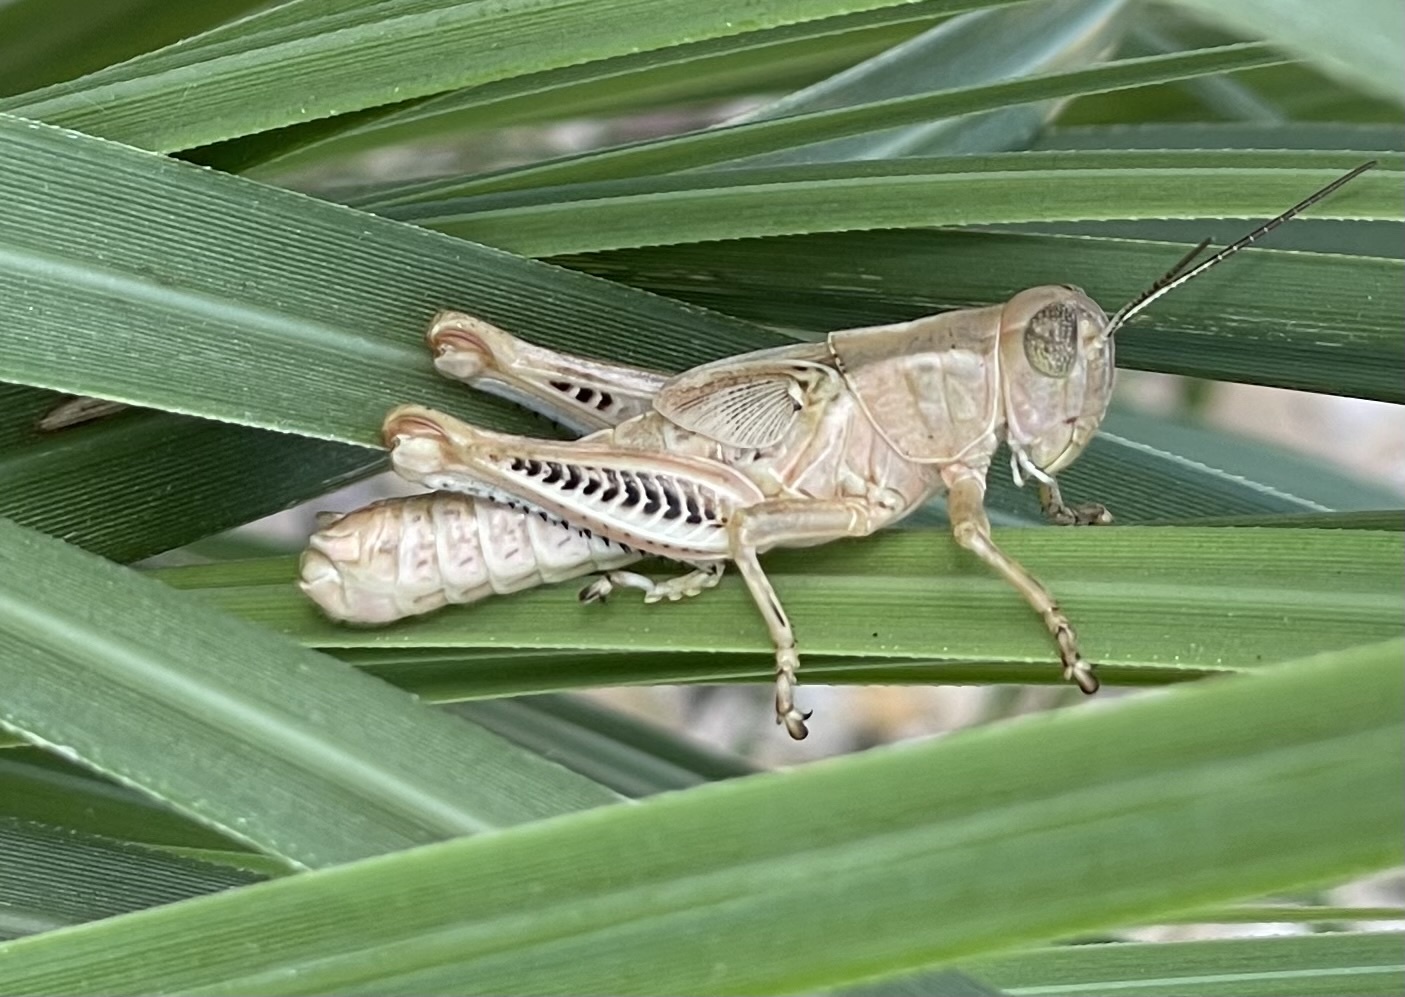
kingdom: Animalia
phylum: Arthropoda
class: Insecta
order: Orthoptera
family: Acrididae
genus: Melanoplus
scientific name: Melanoplus differentialis
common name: Differential grasshopper
